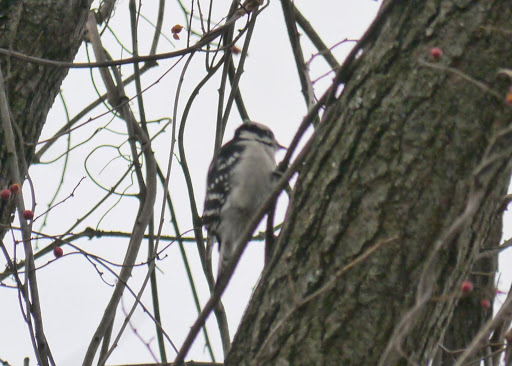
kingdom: Animalia
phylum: Chordata
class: Aves
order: Piciformes
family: Picidae
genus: Dryobates
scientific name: Dryobates pubescens
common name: Downy woodpecker
